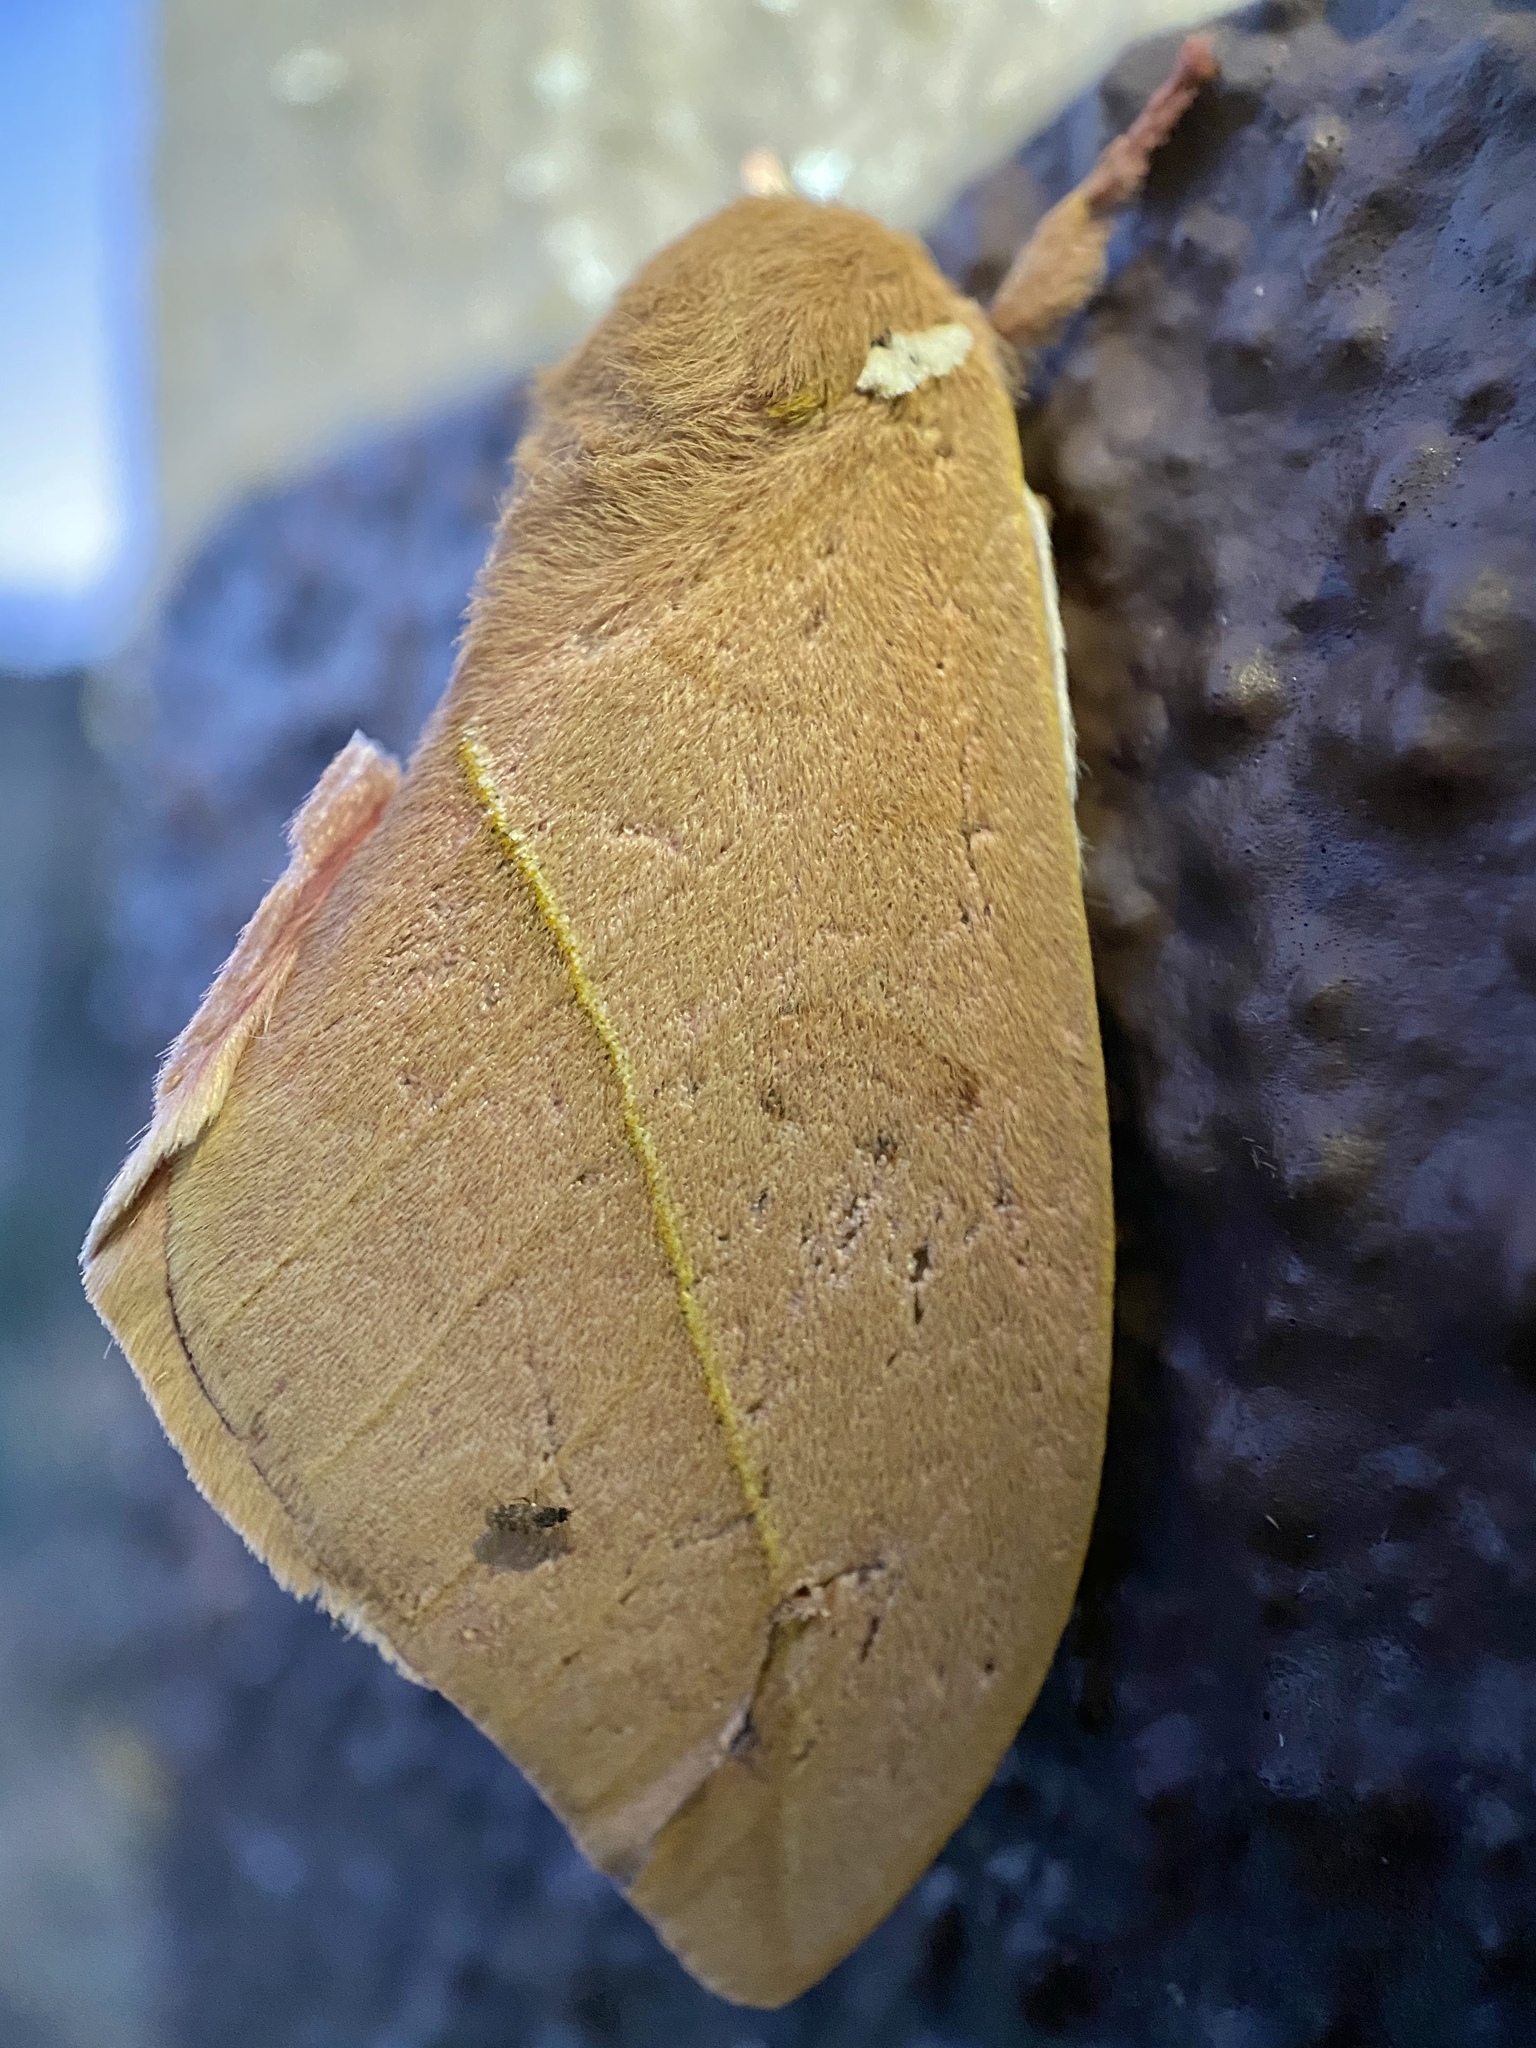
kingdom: Animalia
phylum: Arthropoda
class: Insecta
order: Lepidoptera
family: Saturniidae
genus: Automeris
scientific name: Automeris cecrops
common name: Cecrops eyed silkmoth
